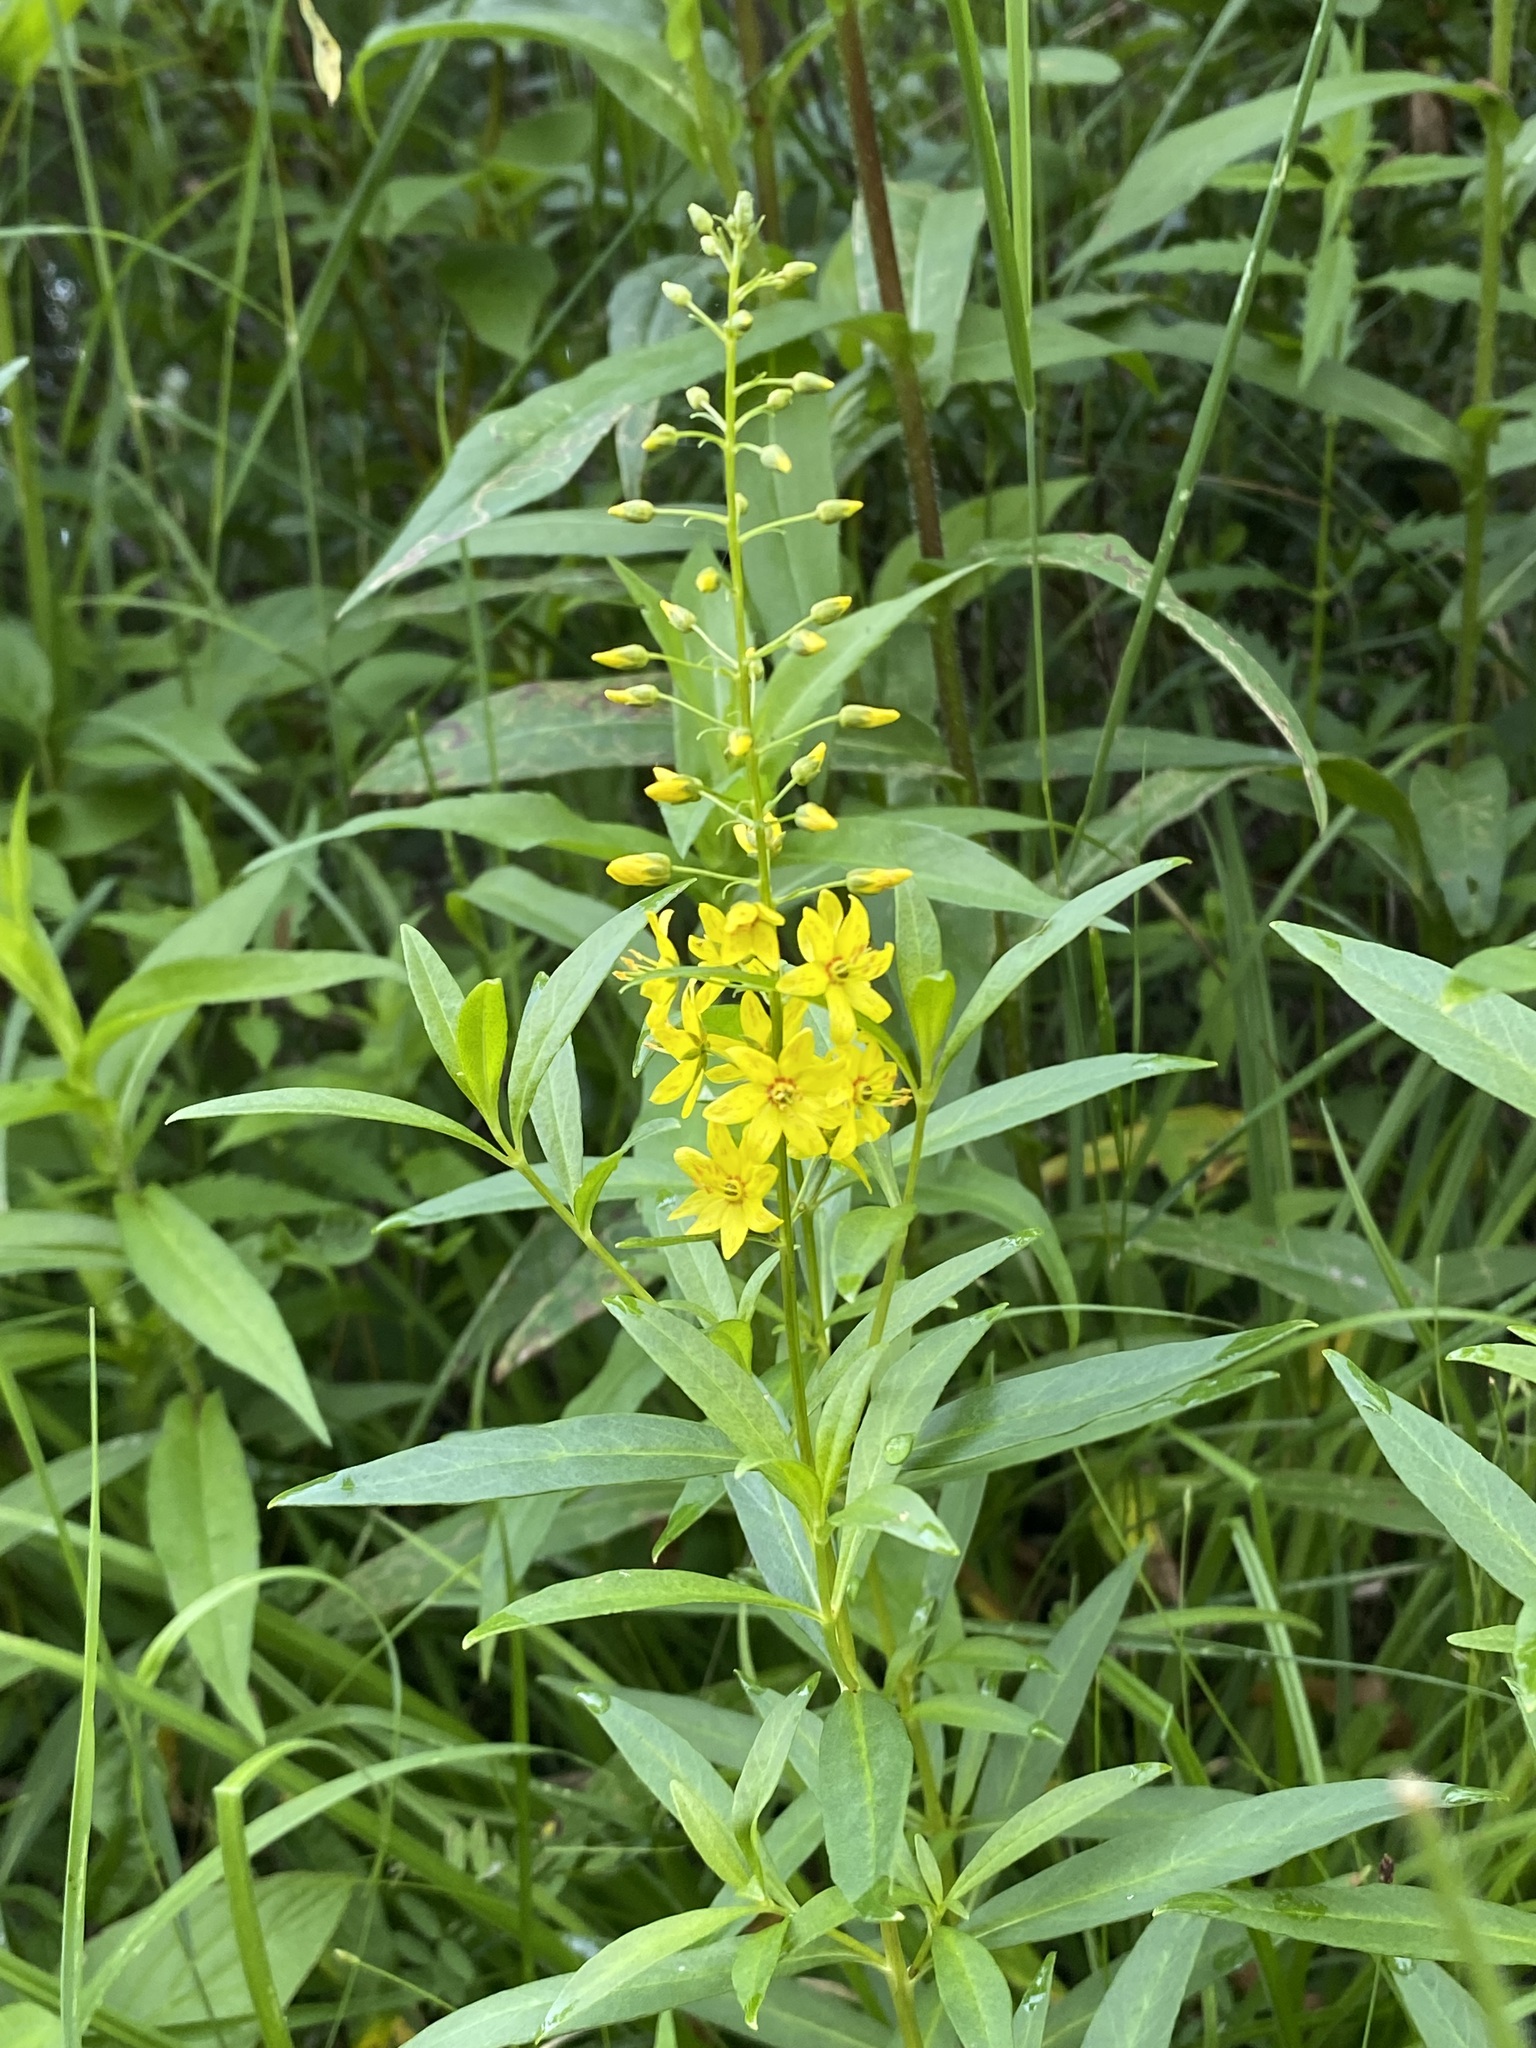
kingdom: Plantae
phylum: Tracheophyta
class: Magnoliopsida
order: Ericales
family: Primulaceae
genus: Lysimachia
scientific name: Lysimachia terrestris
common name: Lake loosestrife
